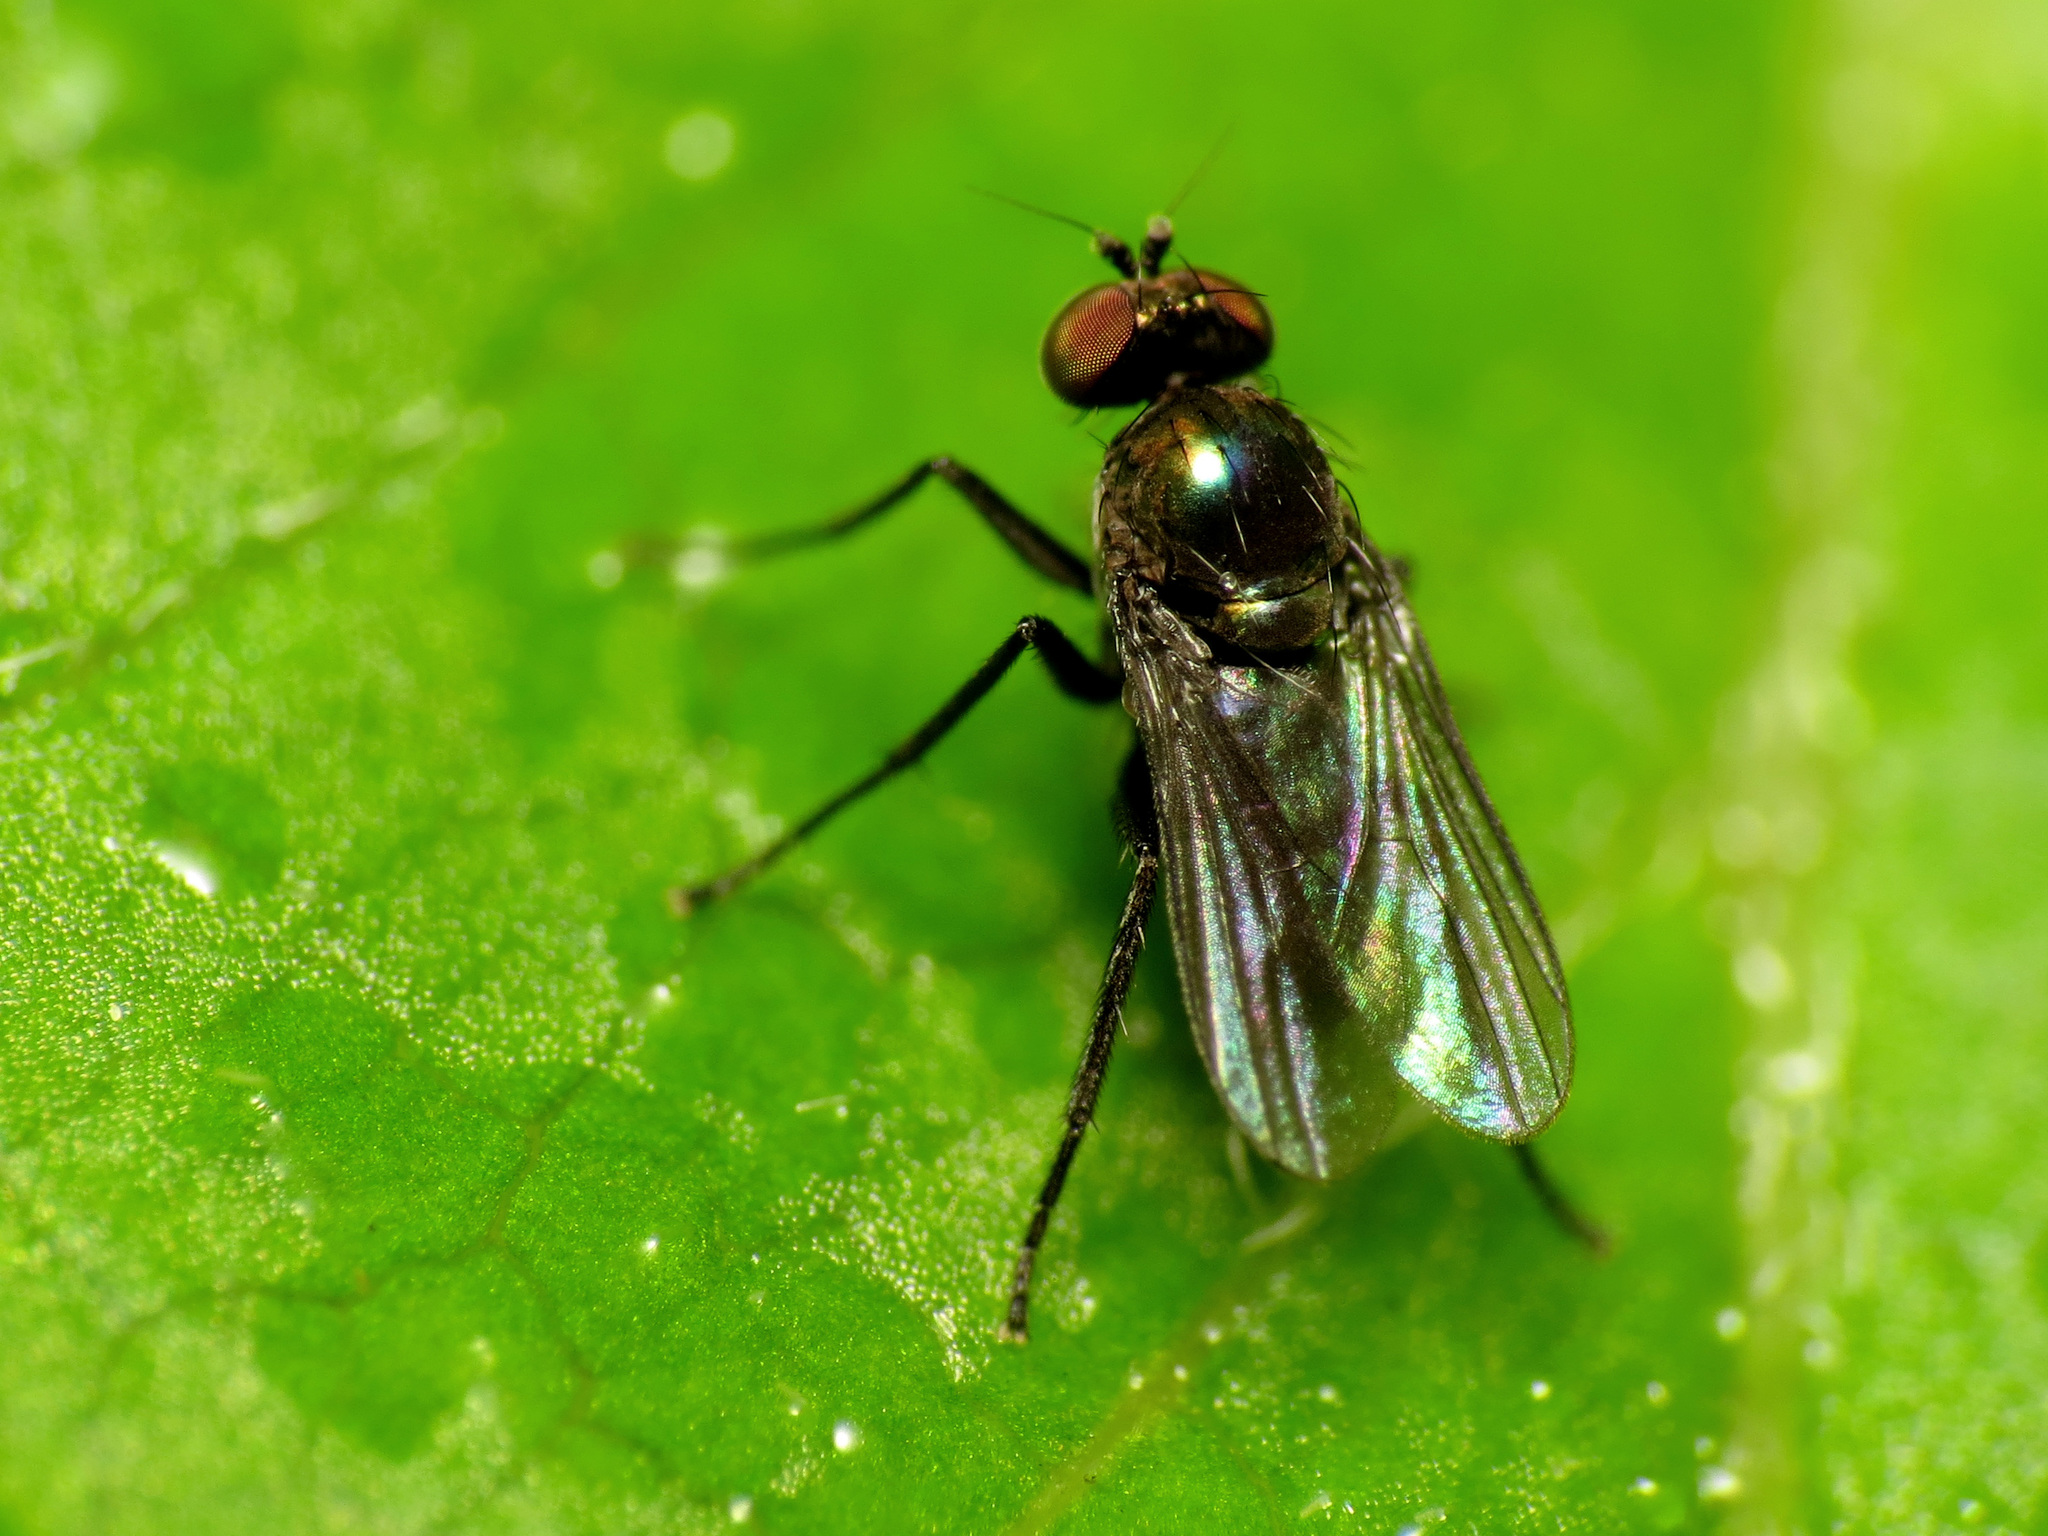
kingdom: Animalia
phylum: Arthropoda
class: Insecta
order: Diptera
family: Dolichopodidae
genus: Chrysotus
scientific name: Chrysotus subcostatus
